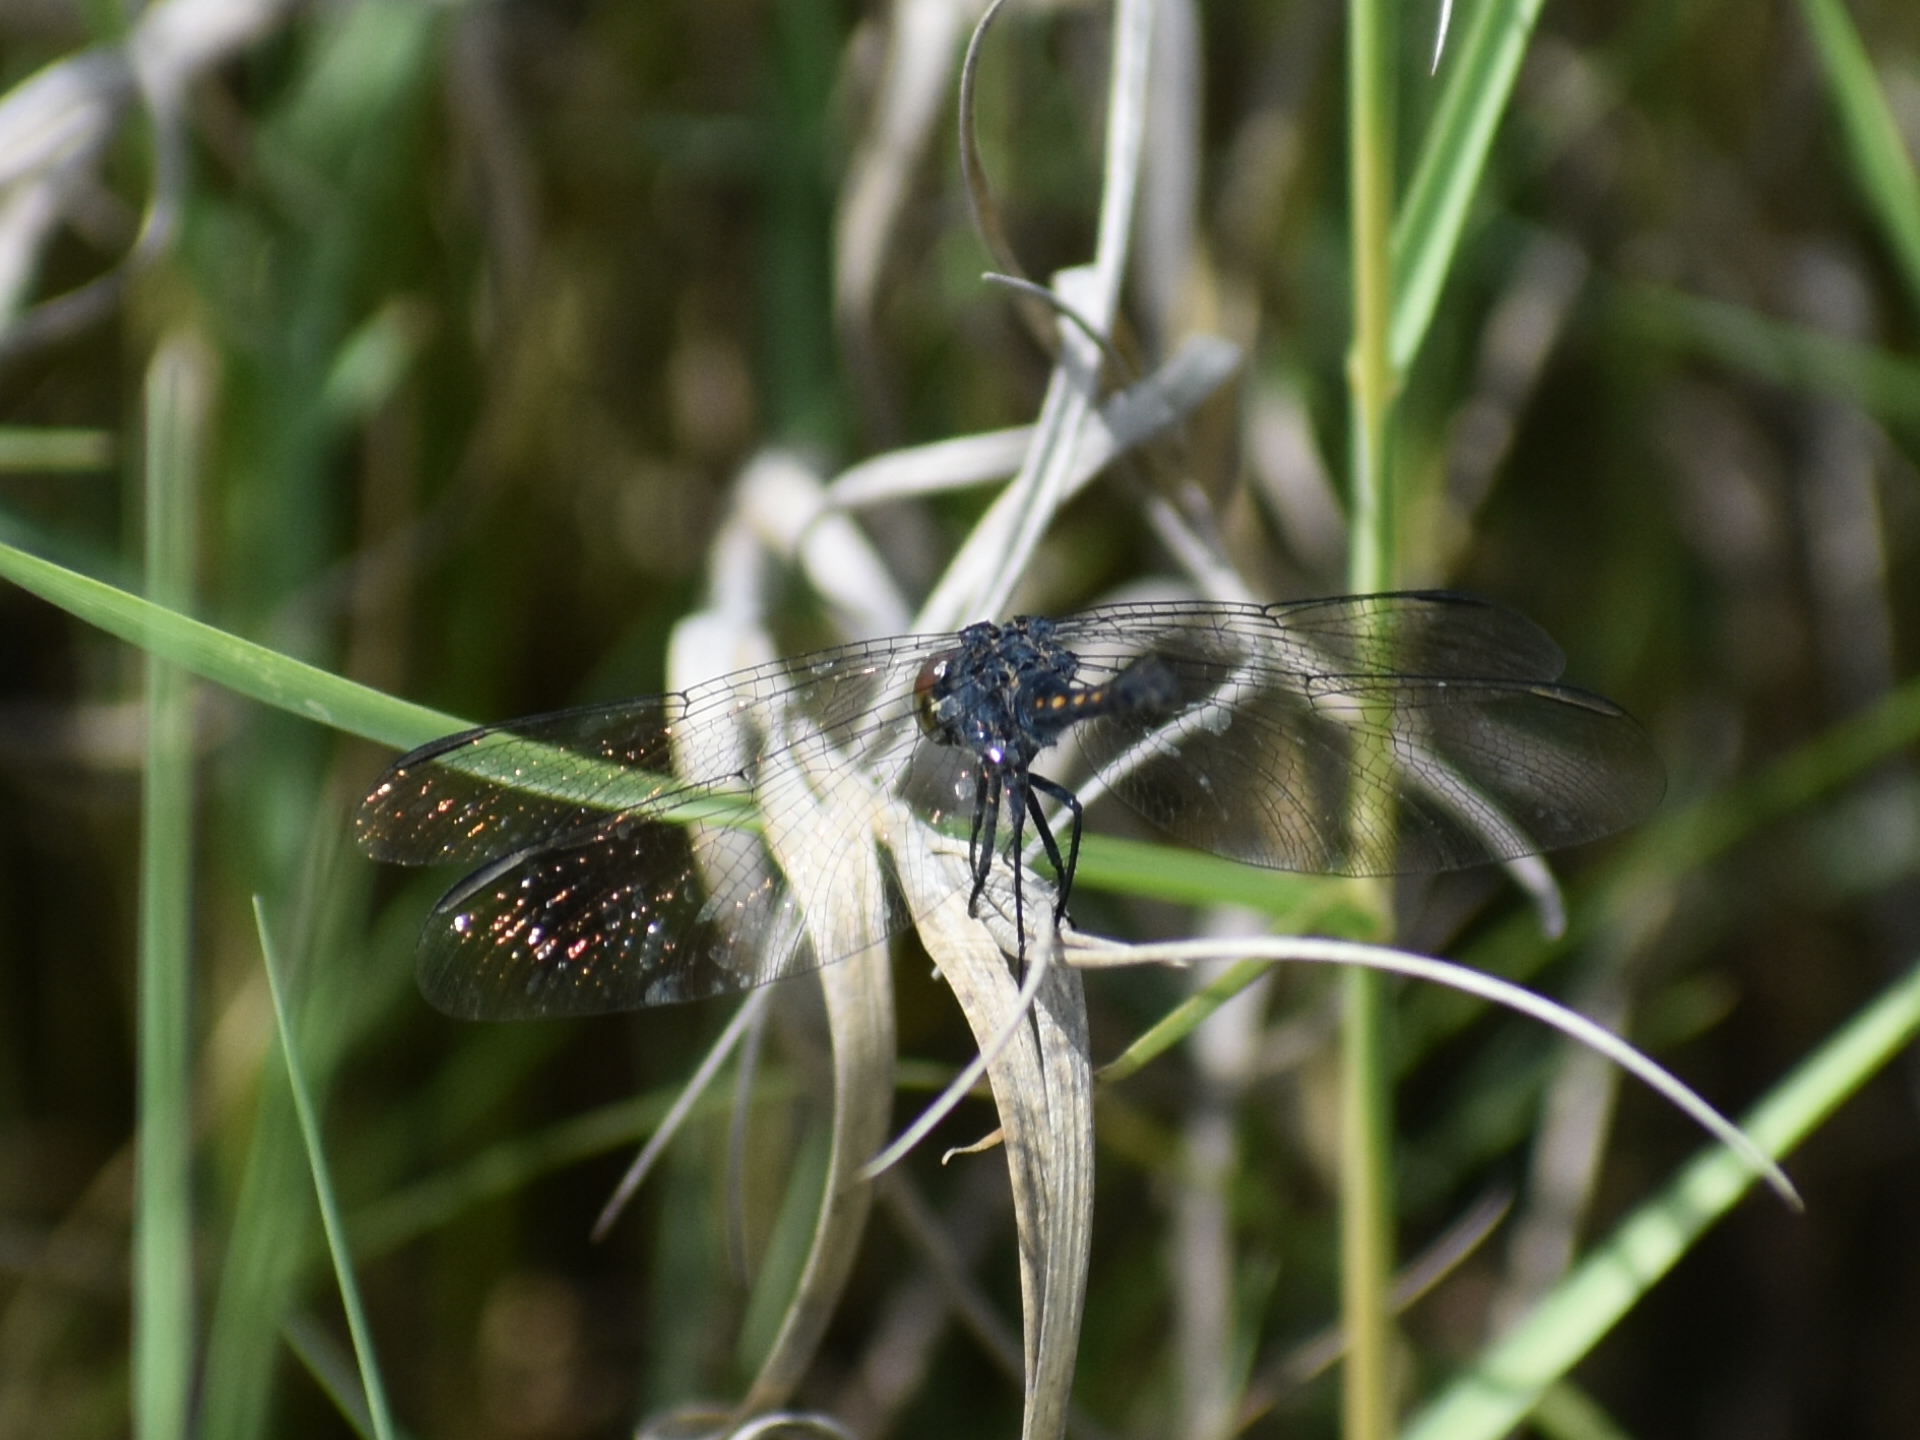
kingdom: Animalia
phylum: Arthropoda
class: Insecta
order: Odonata
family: Libellulidae
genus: Erythrodiplax
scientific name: Erythrodiplax berenice
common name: Seaside dragonlet
